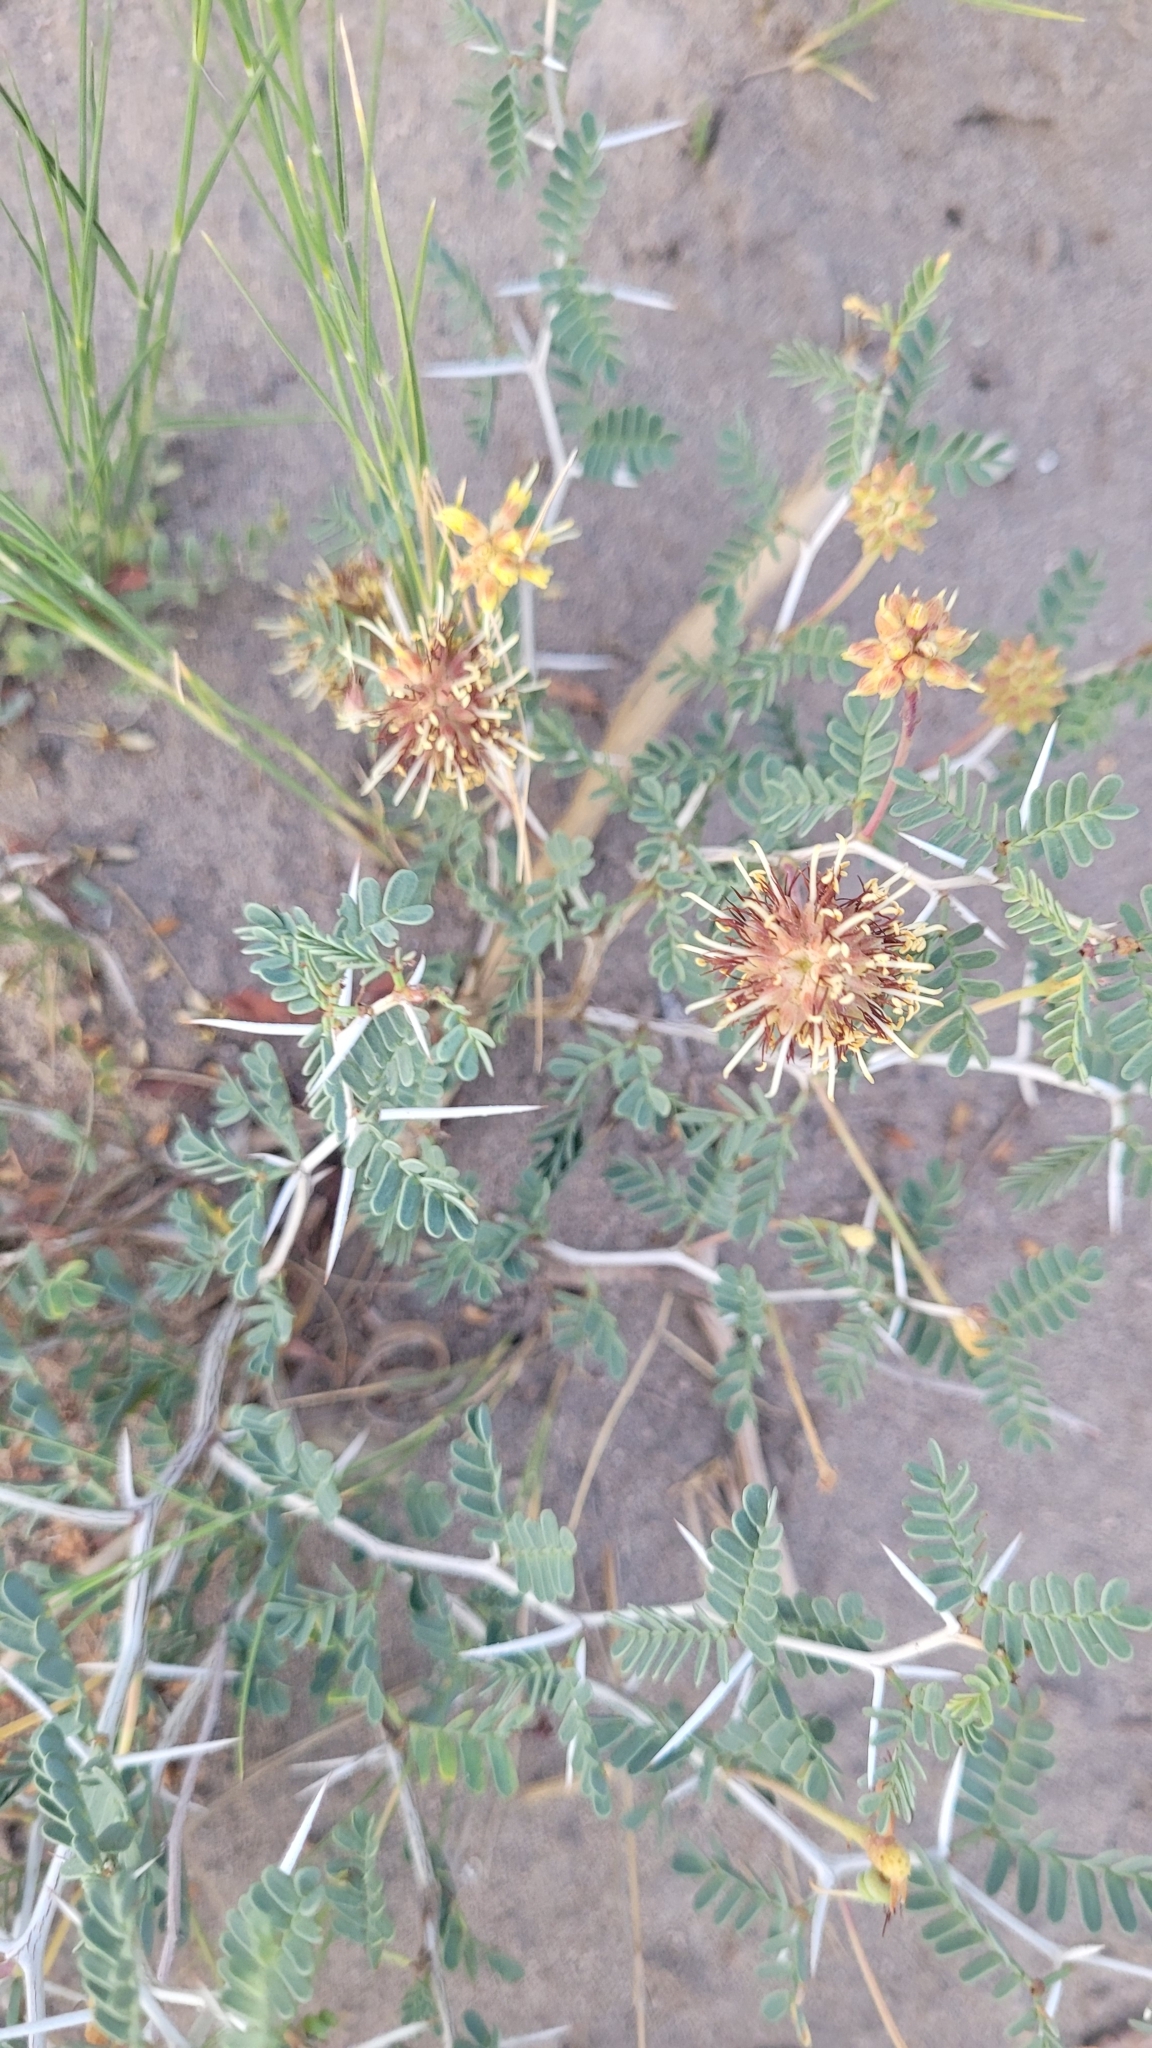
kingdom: Plantae
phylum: Tracheophyta
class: Magnoliopsida
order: Fabales
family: Fabaceae
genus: Prosopis
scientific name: Prosopis strombulifera
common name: Creeping mesquite
